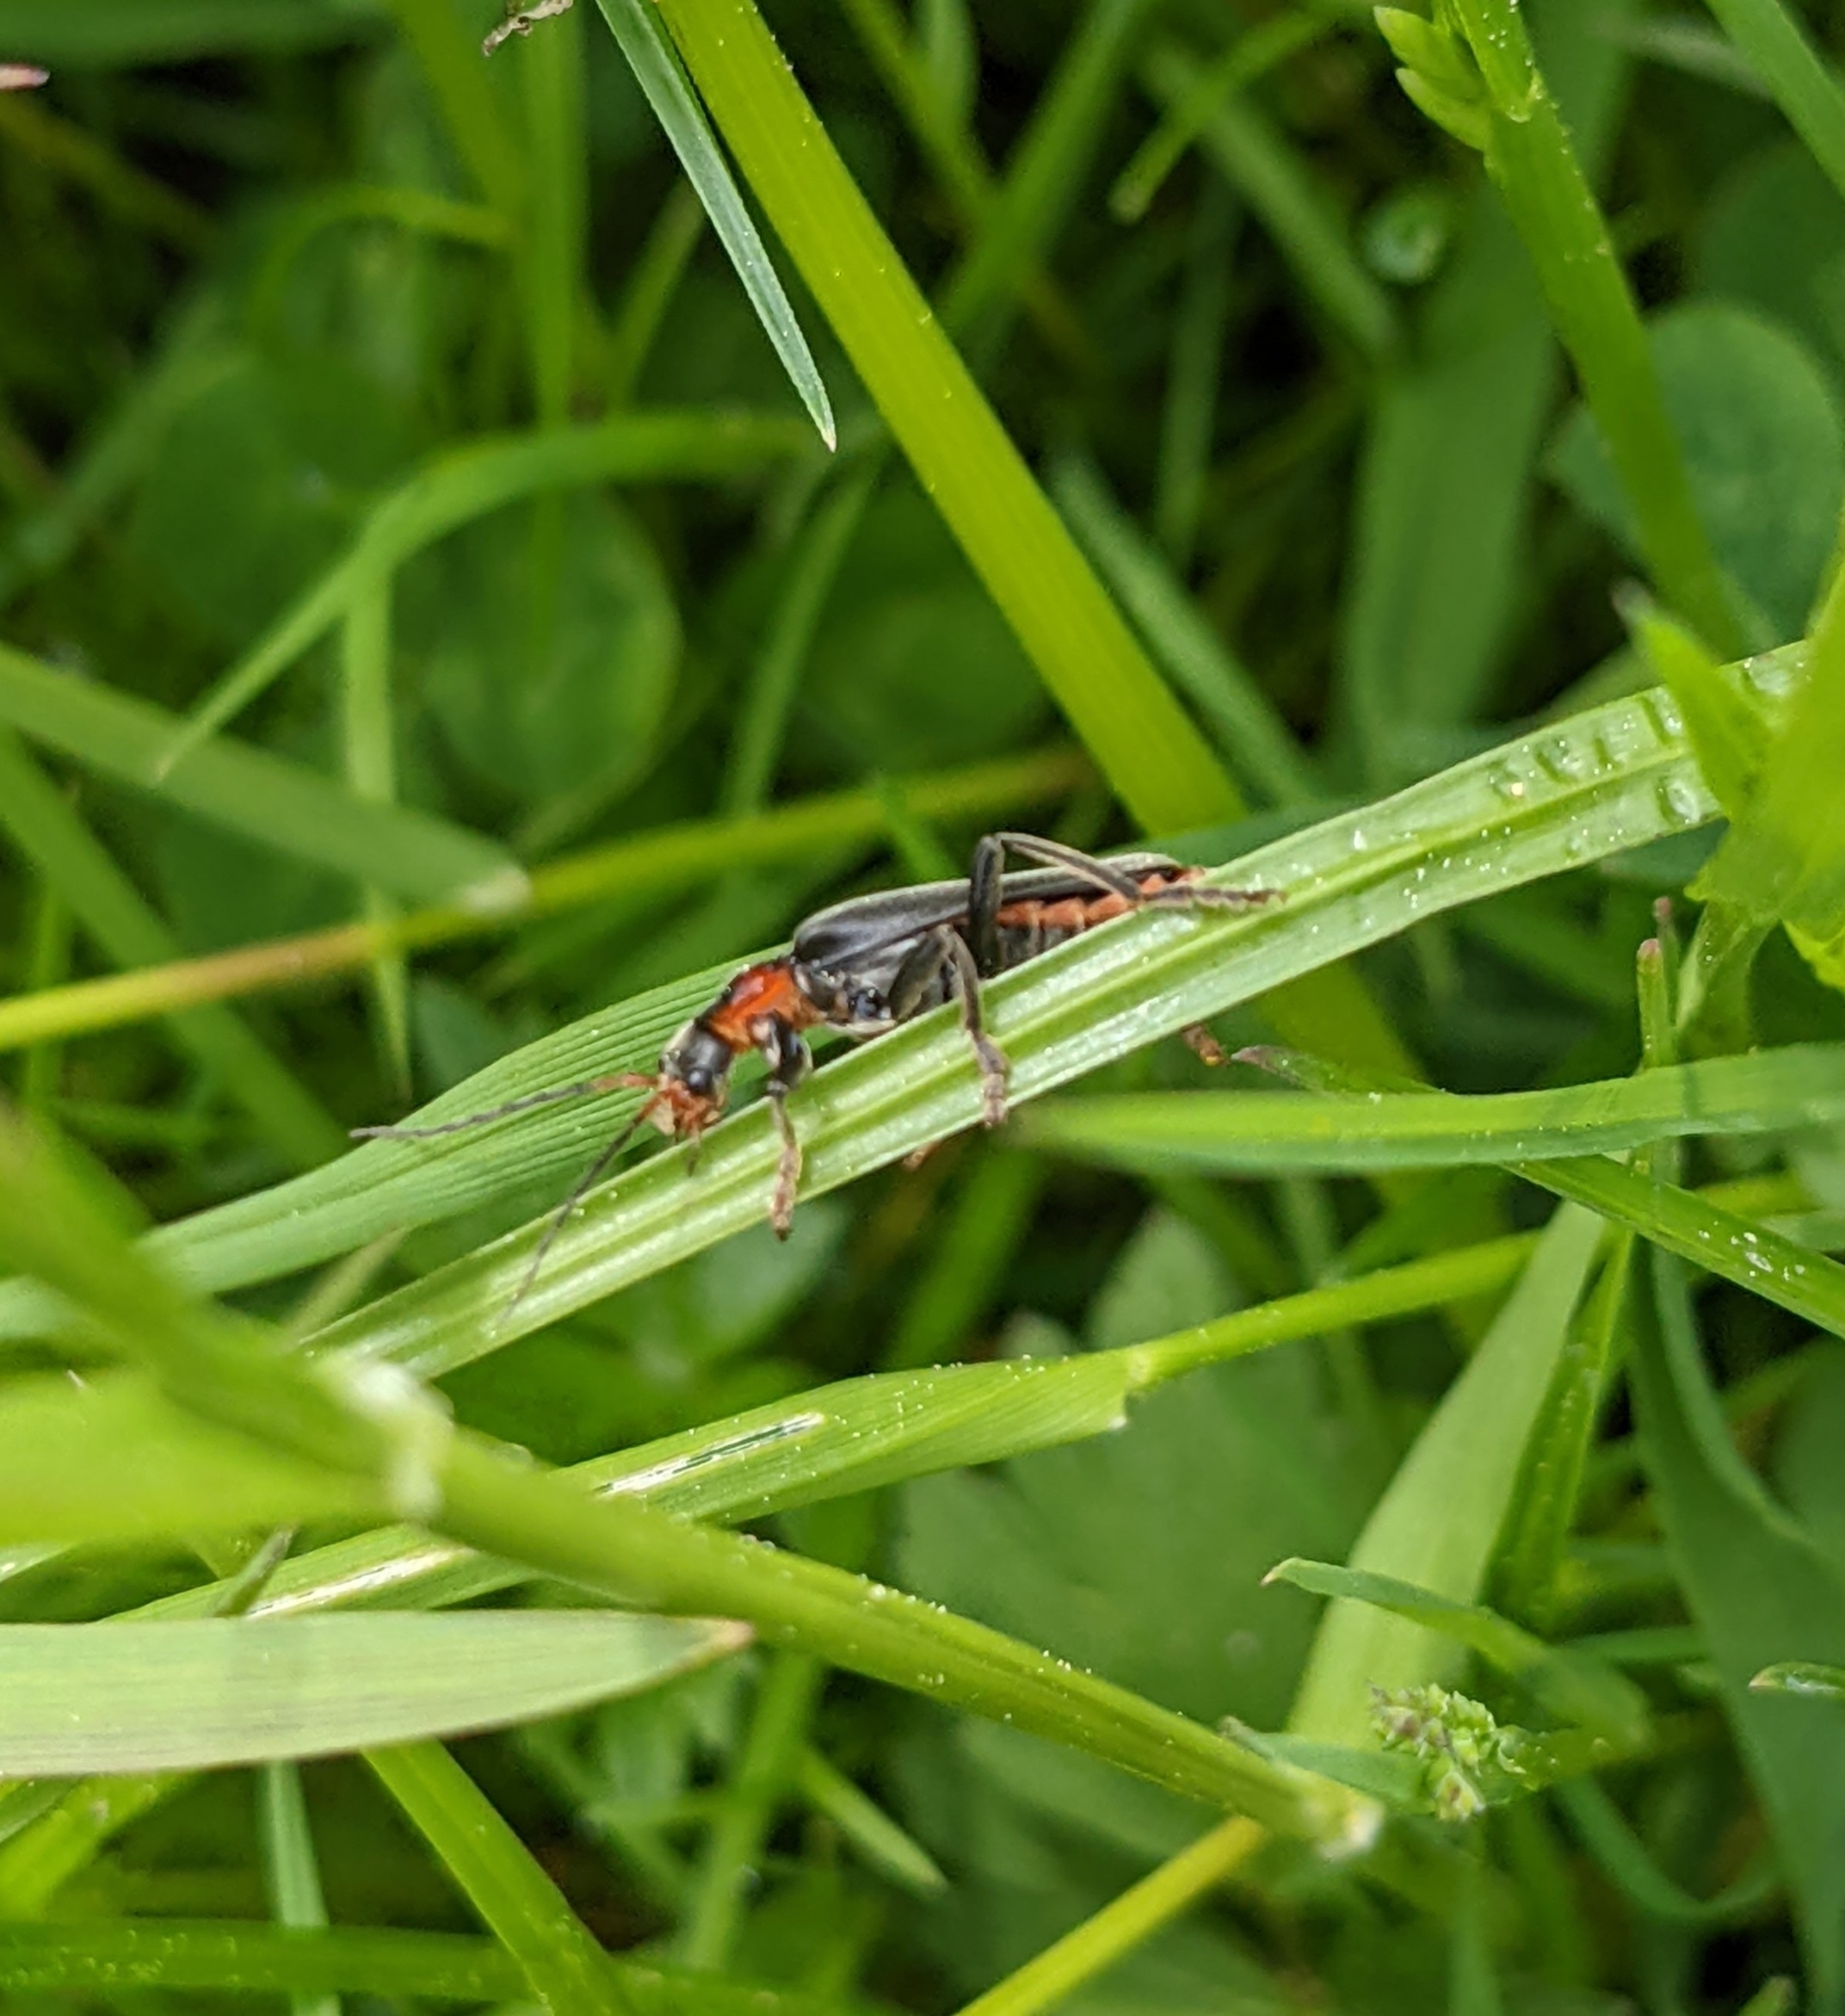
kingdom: Animalia
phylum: Arthropoda
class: Insecta
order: Coleoptera
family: Cantharidae
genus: Cantharis
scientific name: Cantharis fusca
